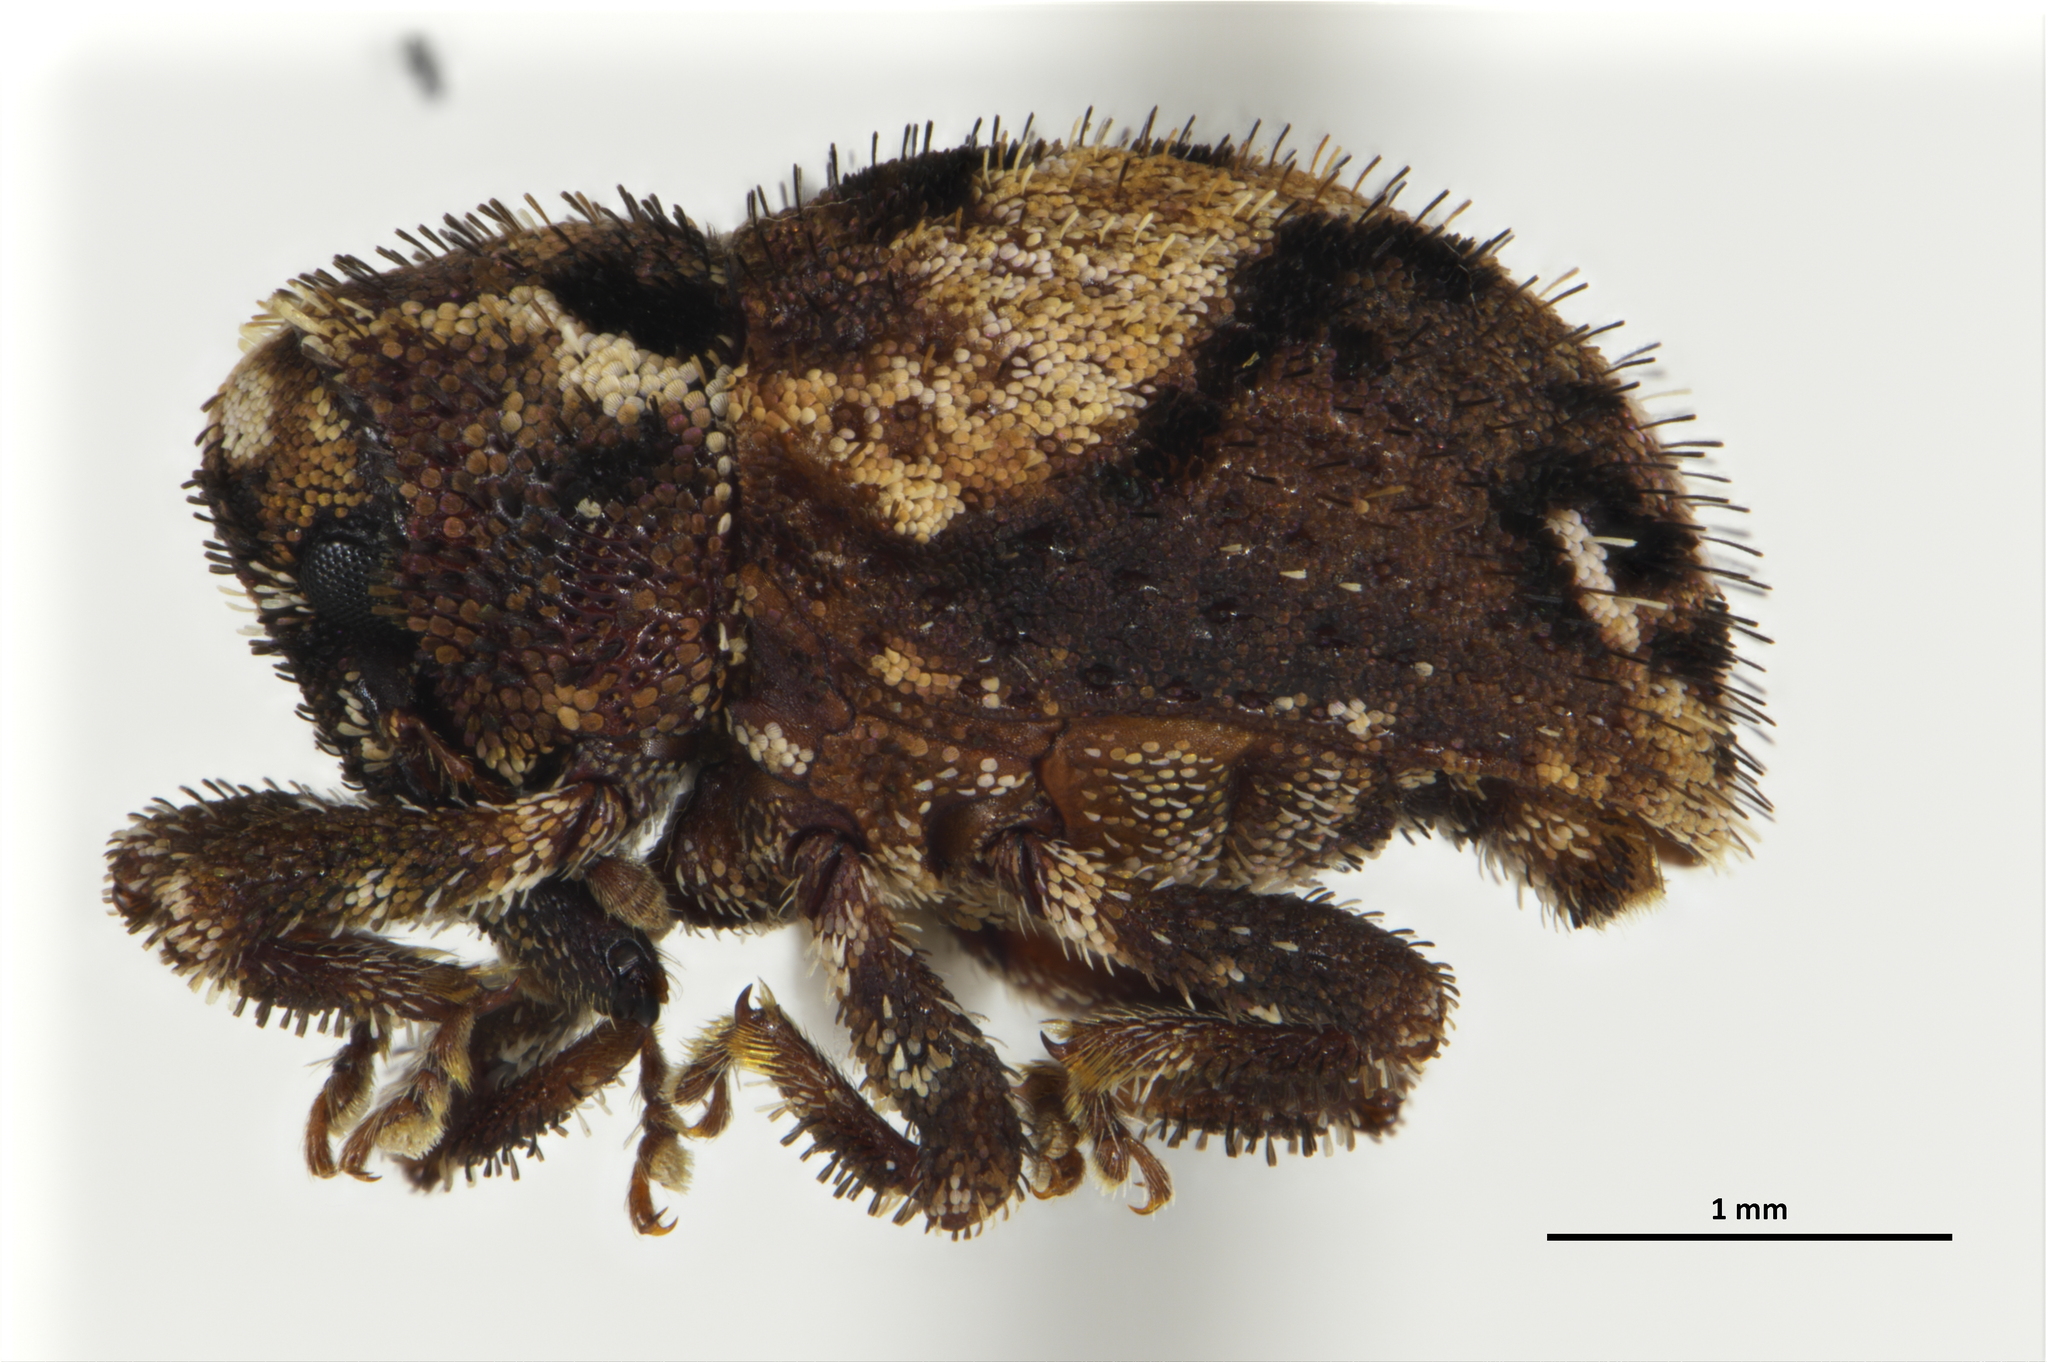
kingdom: Animalia
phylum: Arthropoda
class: Insecta
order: Coleoptera
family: Curculionidae
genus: Clypeolus
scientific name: Clypeolus signatus
